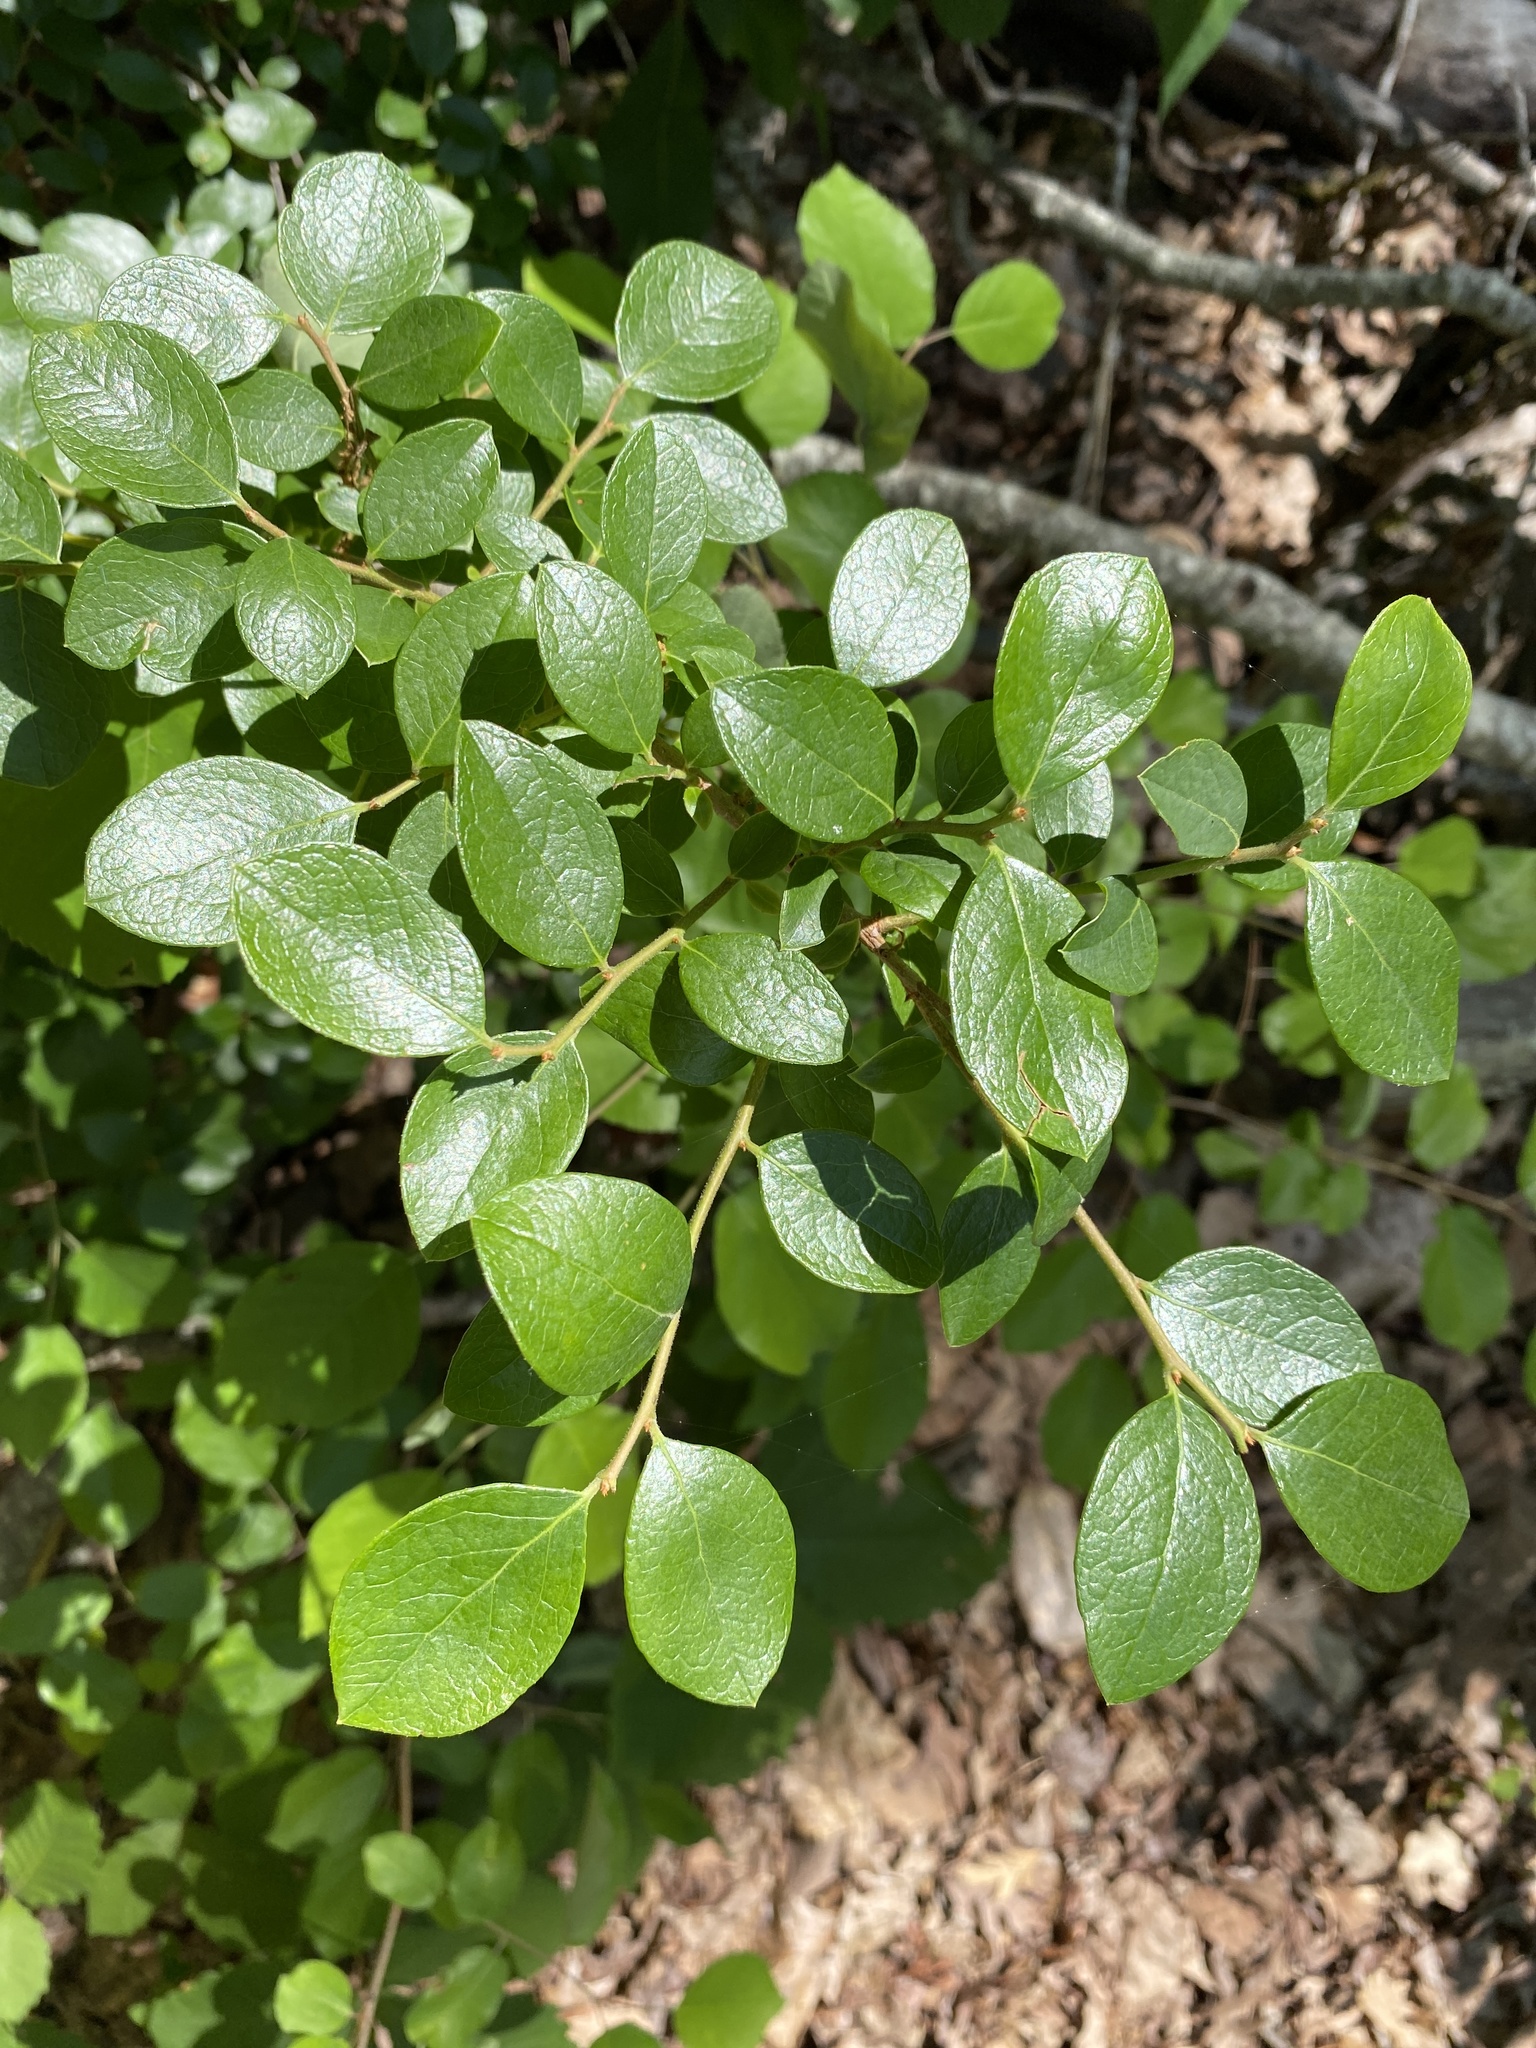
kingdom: Plantae
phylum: Tracheophyta
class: Magnoliopsida
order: Ericales
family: Ericaceae
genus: Vaccinium
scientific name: Vaccinium arboreum
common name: Farkleberry
